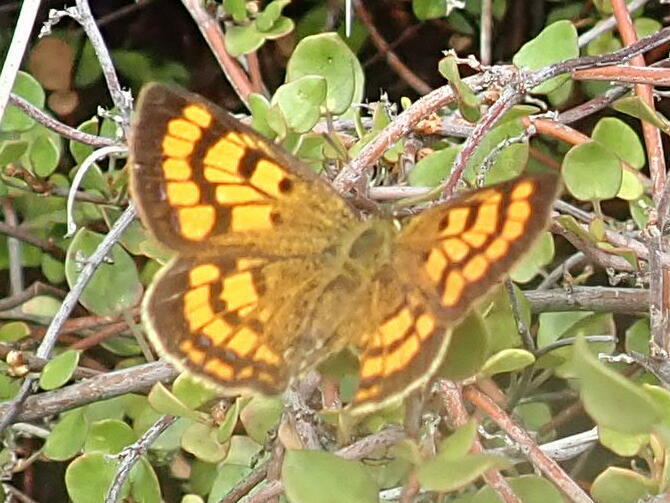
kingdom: Animalia
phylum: Arthropoda
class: Insecta
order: Lepidoptera
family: Lycaenidae
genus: Lycaena
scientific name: Lycaena salustius
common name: North island coastal copper
